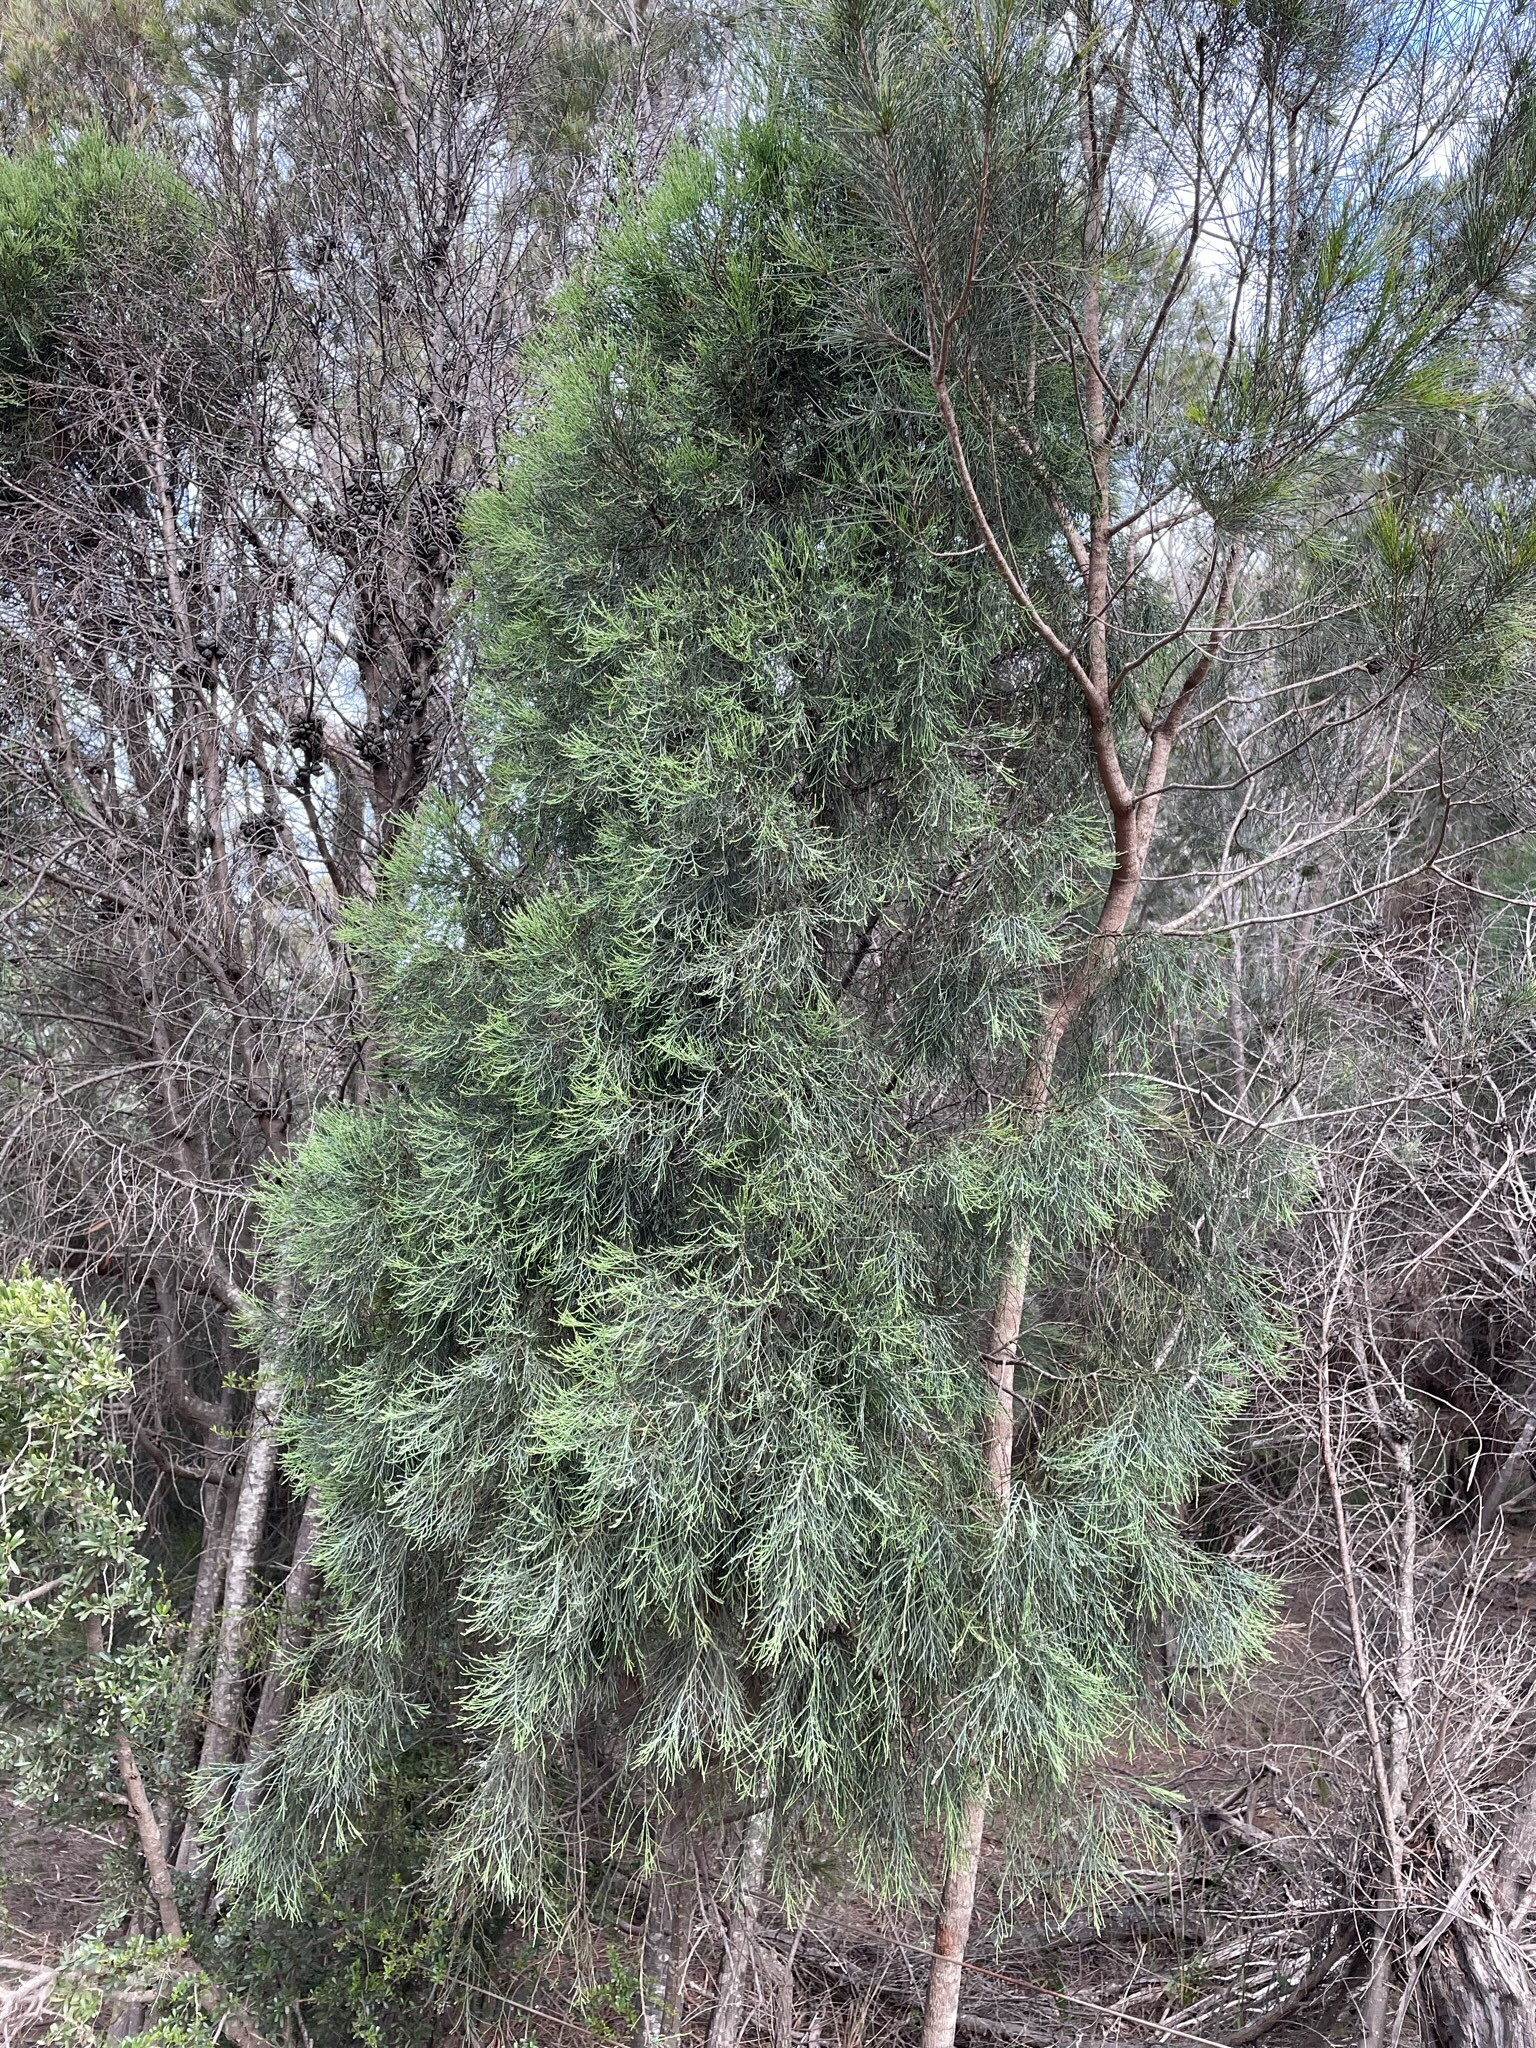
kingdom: Plantae
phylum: Tracheophyta
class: Pinopsida
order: Pinales
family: Cupressaceae
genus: Callitris
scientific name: Callitris oblonga
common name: Dwarf cypress-pine
